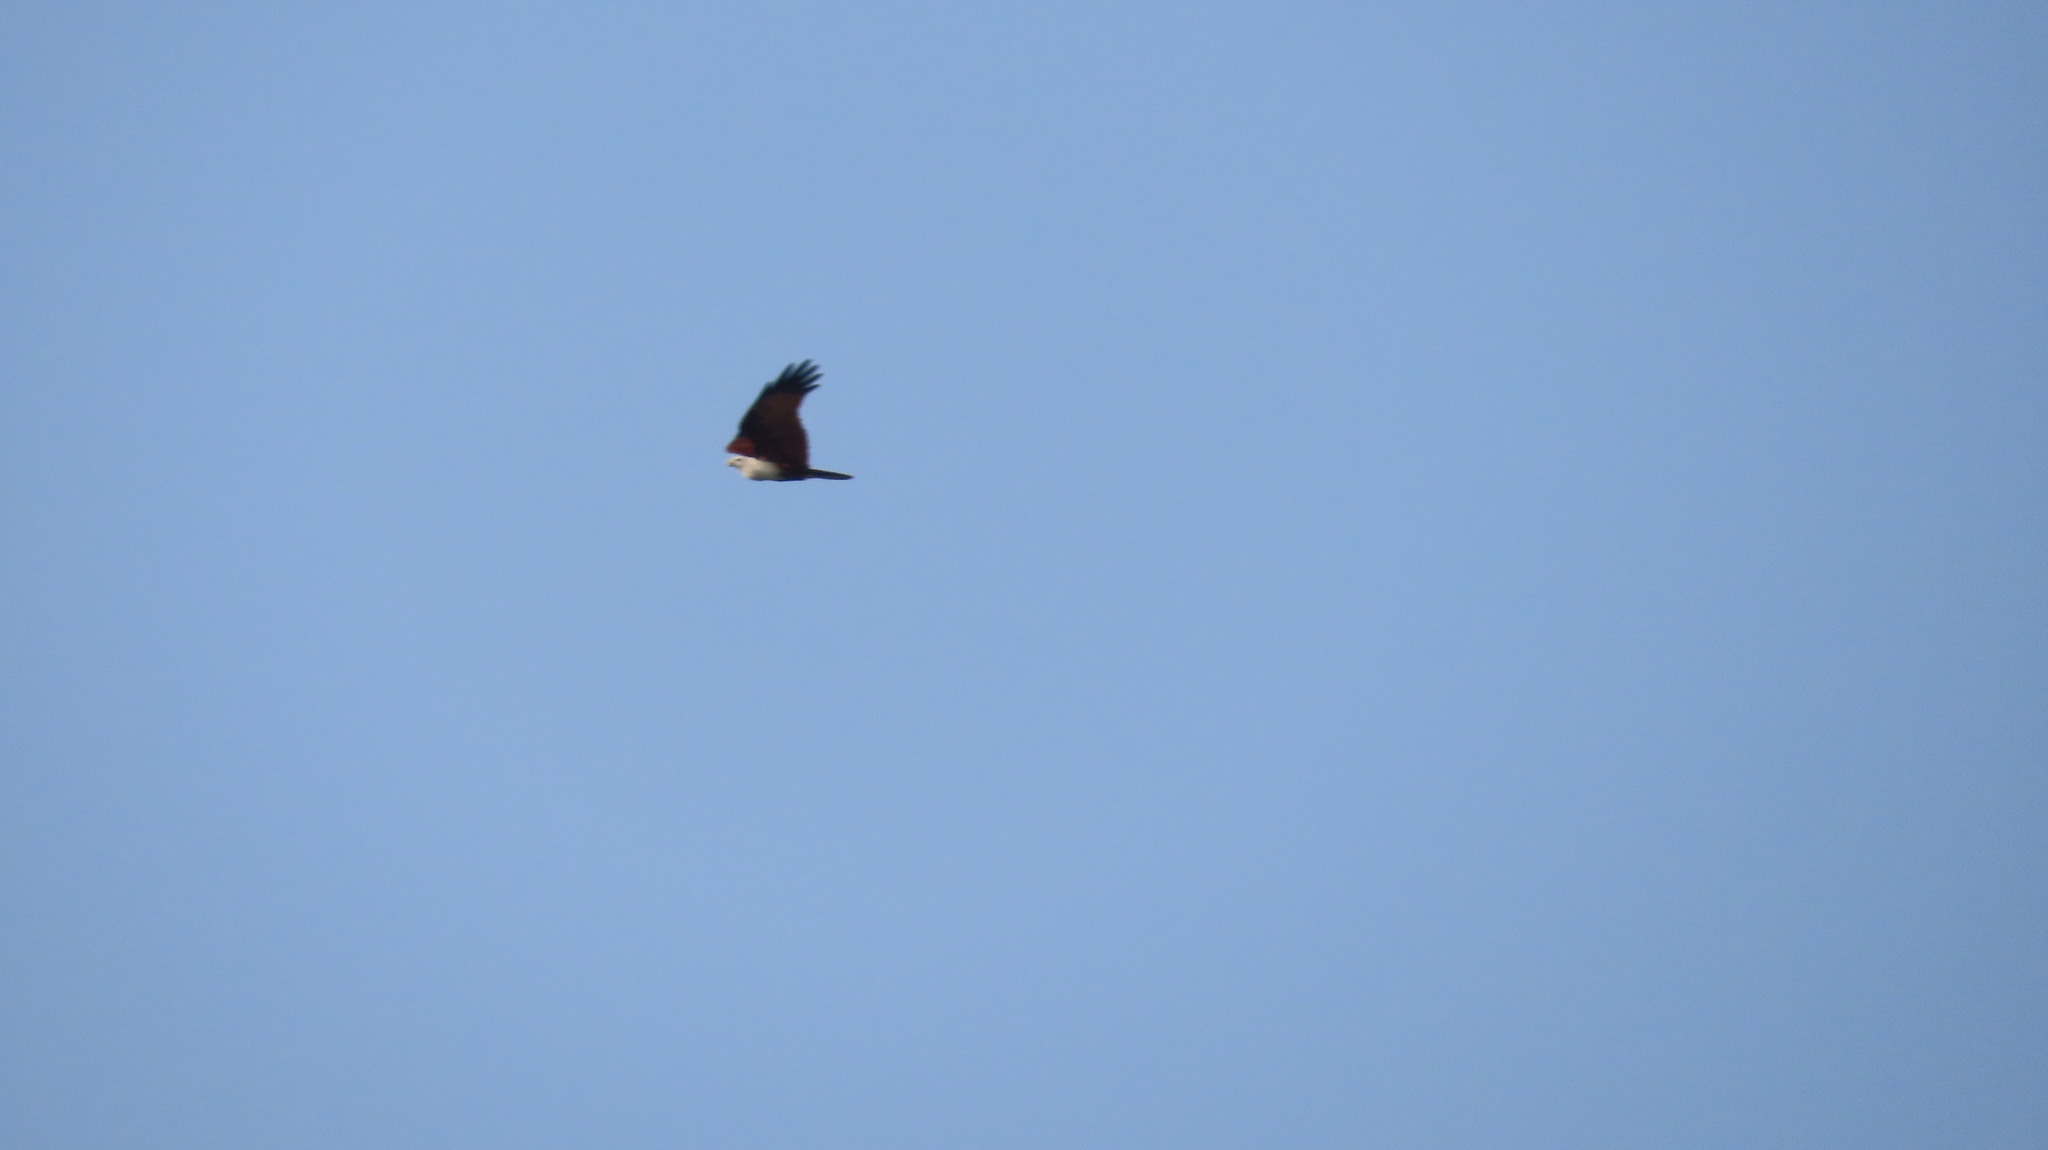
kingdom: Animalia
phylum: Chordata
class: Aves
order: Accipitriformes
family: Accipitridae
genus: Haliastur
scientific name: Haliastur indus
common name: Brahminy kite
